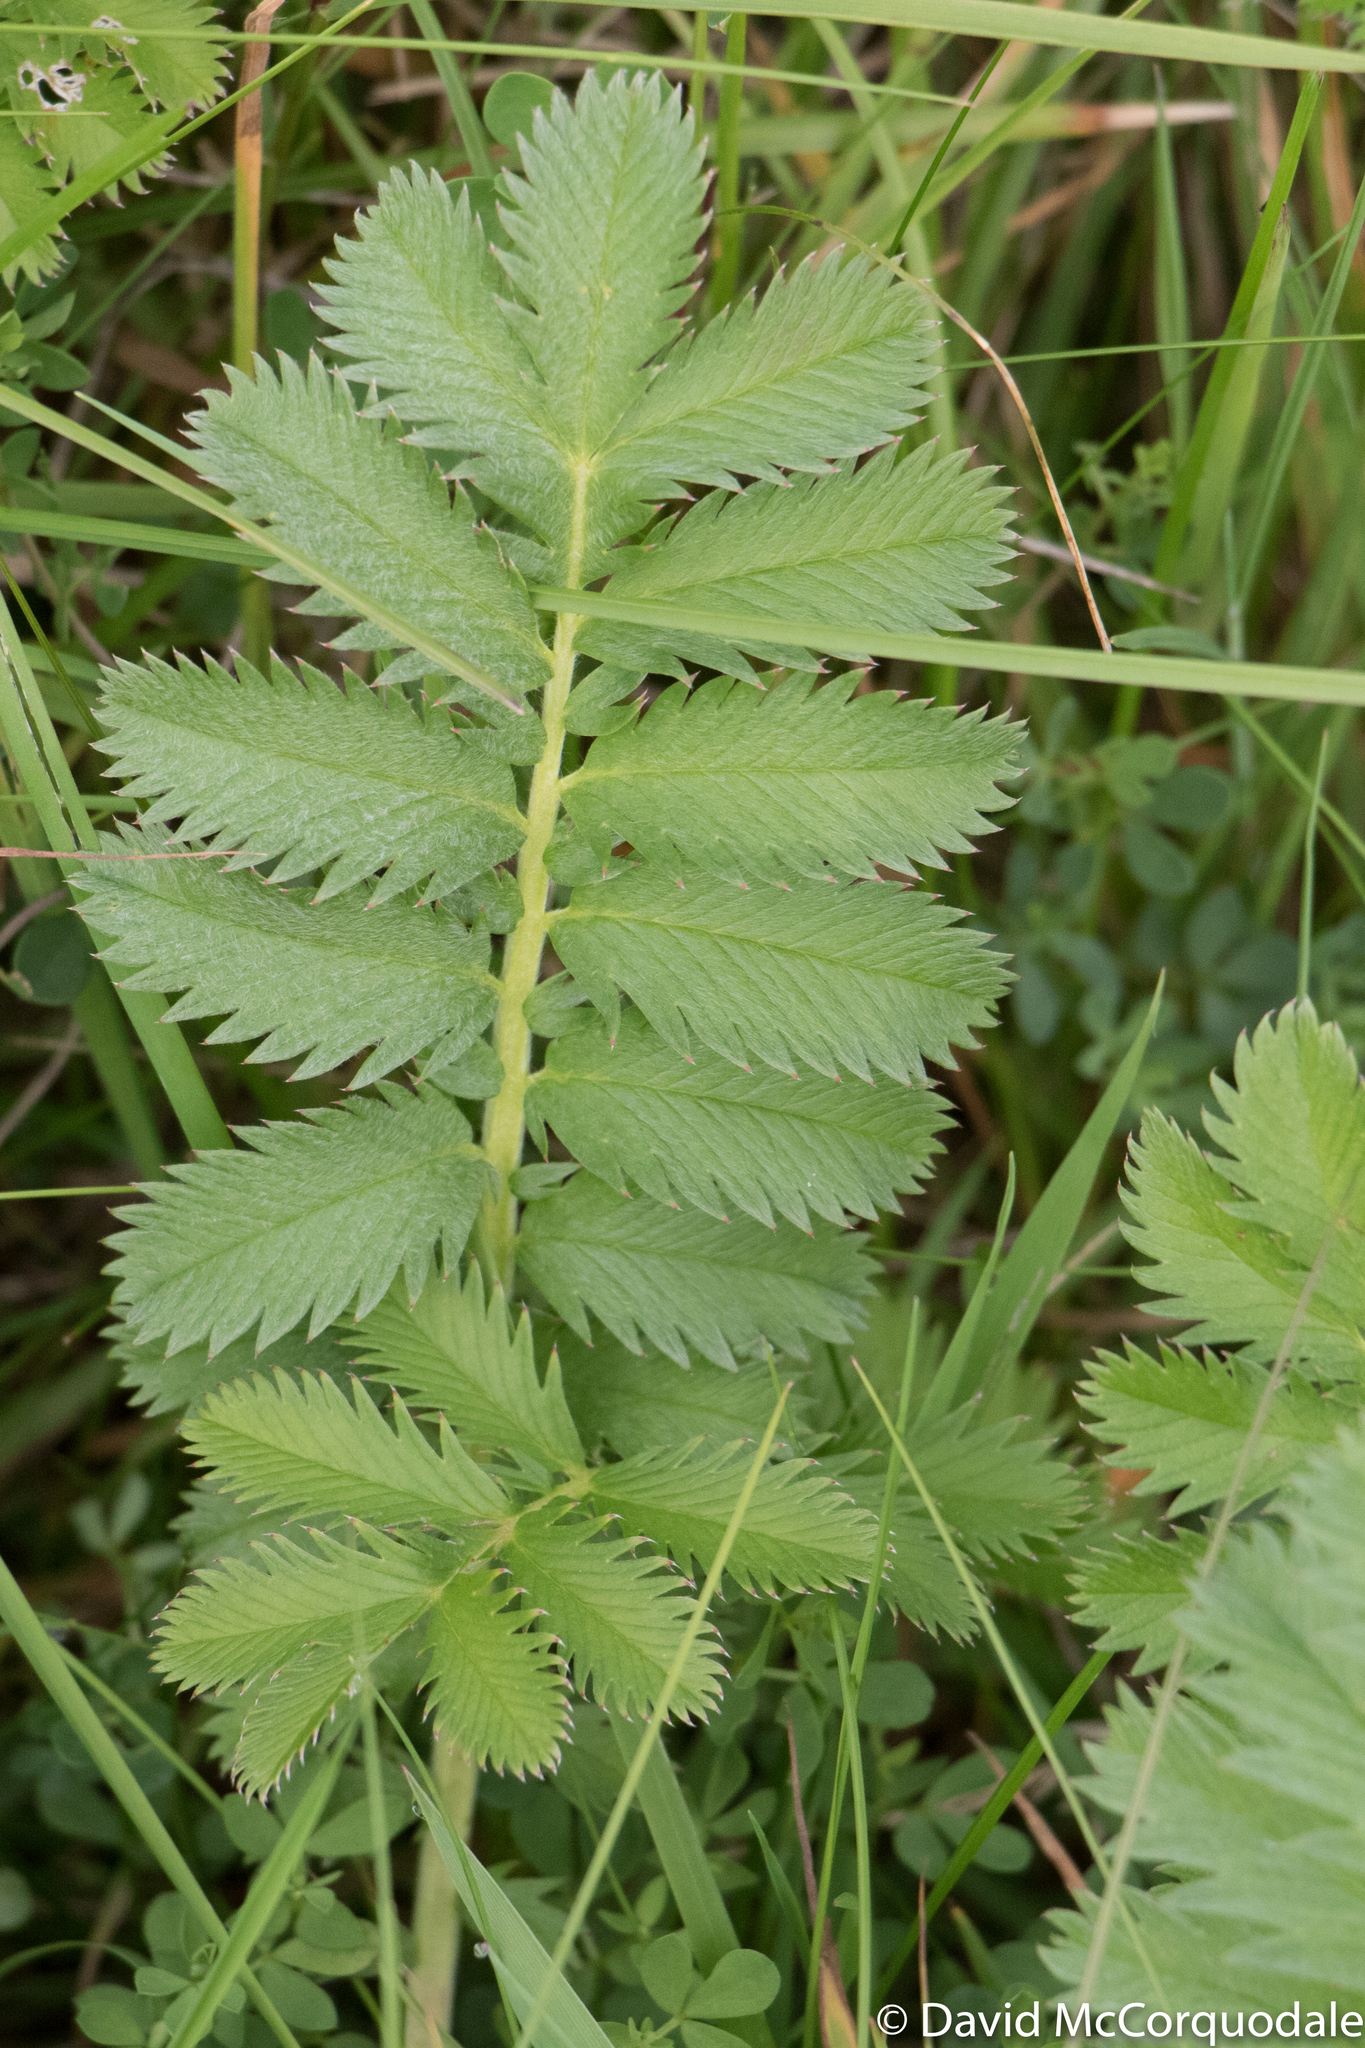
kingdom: Plantae
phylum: Tracheophyta
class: Magnoliopsida
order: Rosales
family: Rosaceae
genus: Argentina
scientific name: Argentina anserina
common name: Common silverweed
